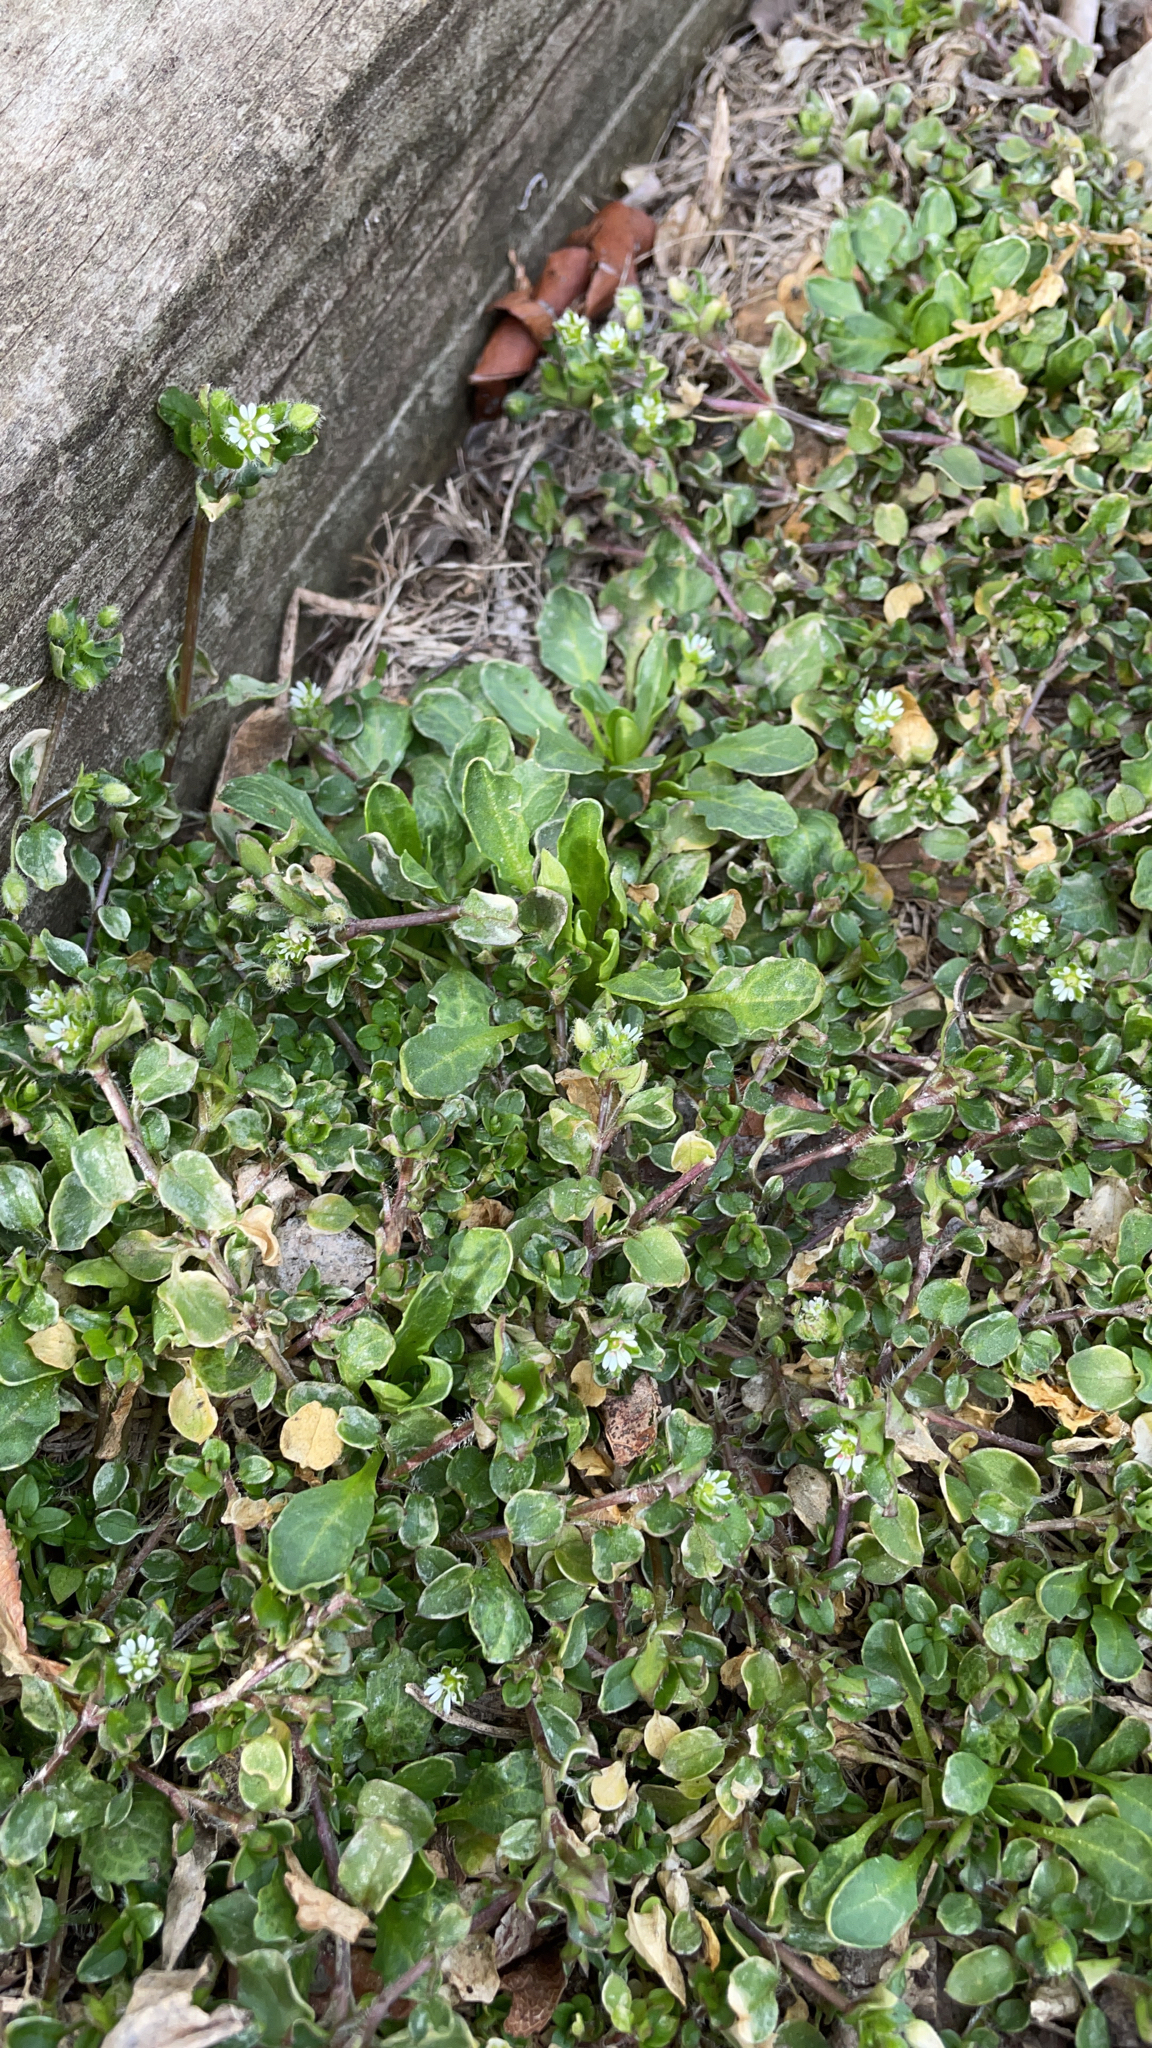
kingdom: Plantae
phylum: Tracheophyta
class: Magnoliopsida
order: Caryophyllales
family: Caryophyllaceae
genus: Stellaria
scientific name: Stellaria media
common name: Common chickweed
